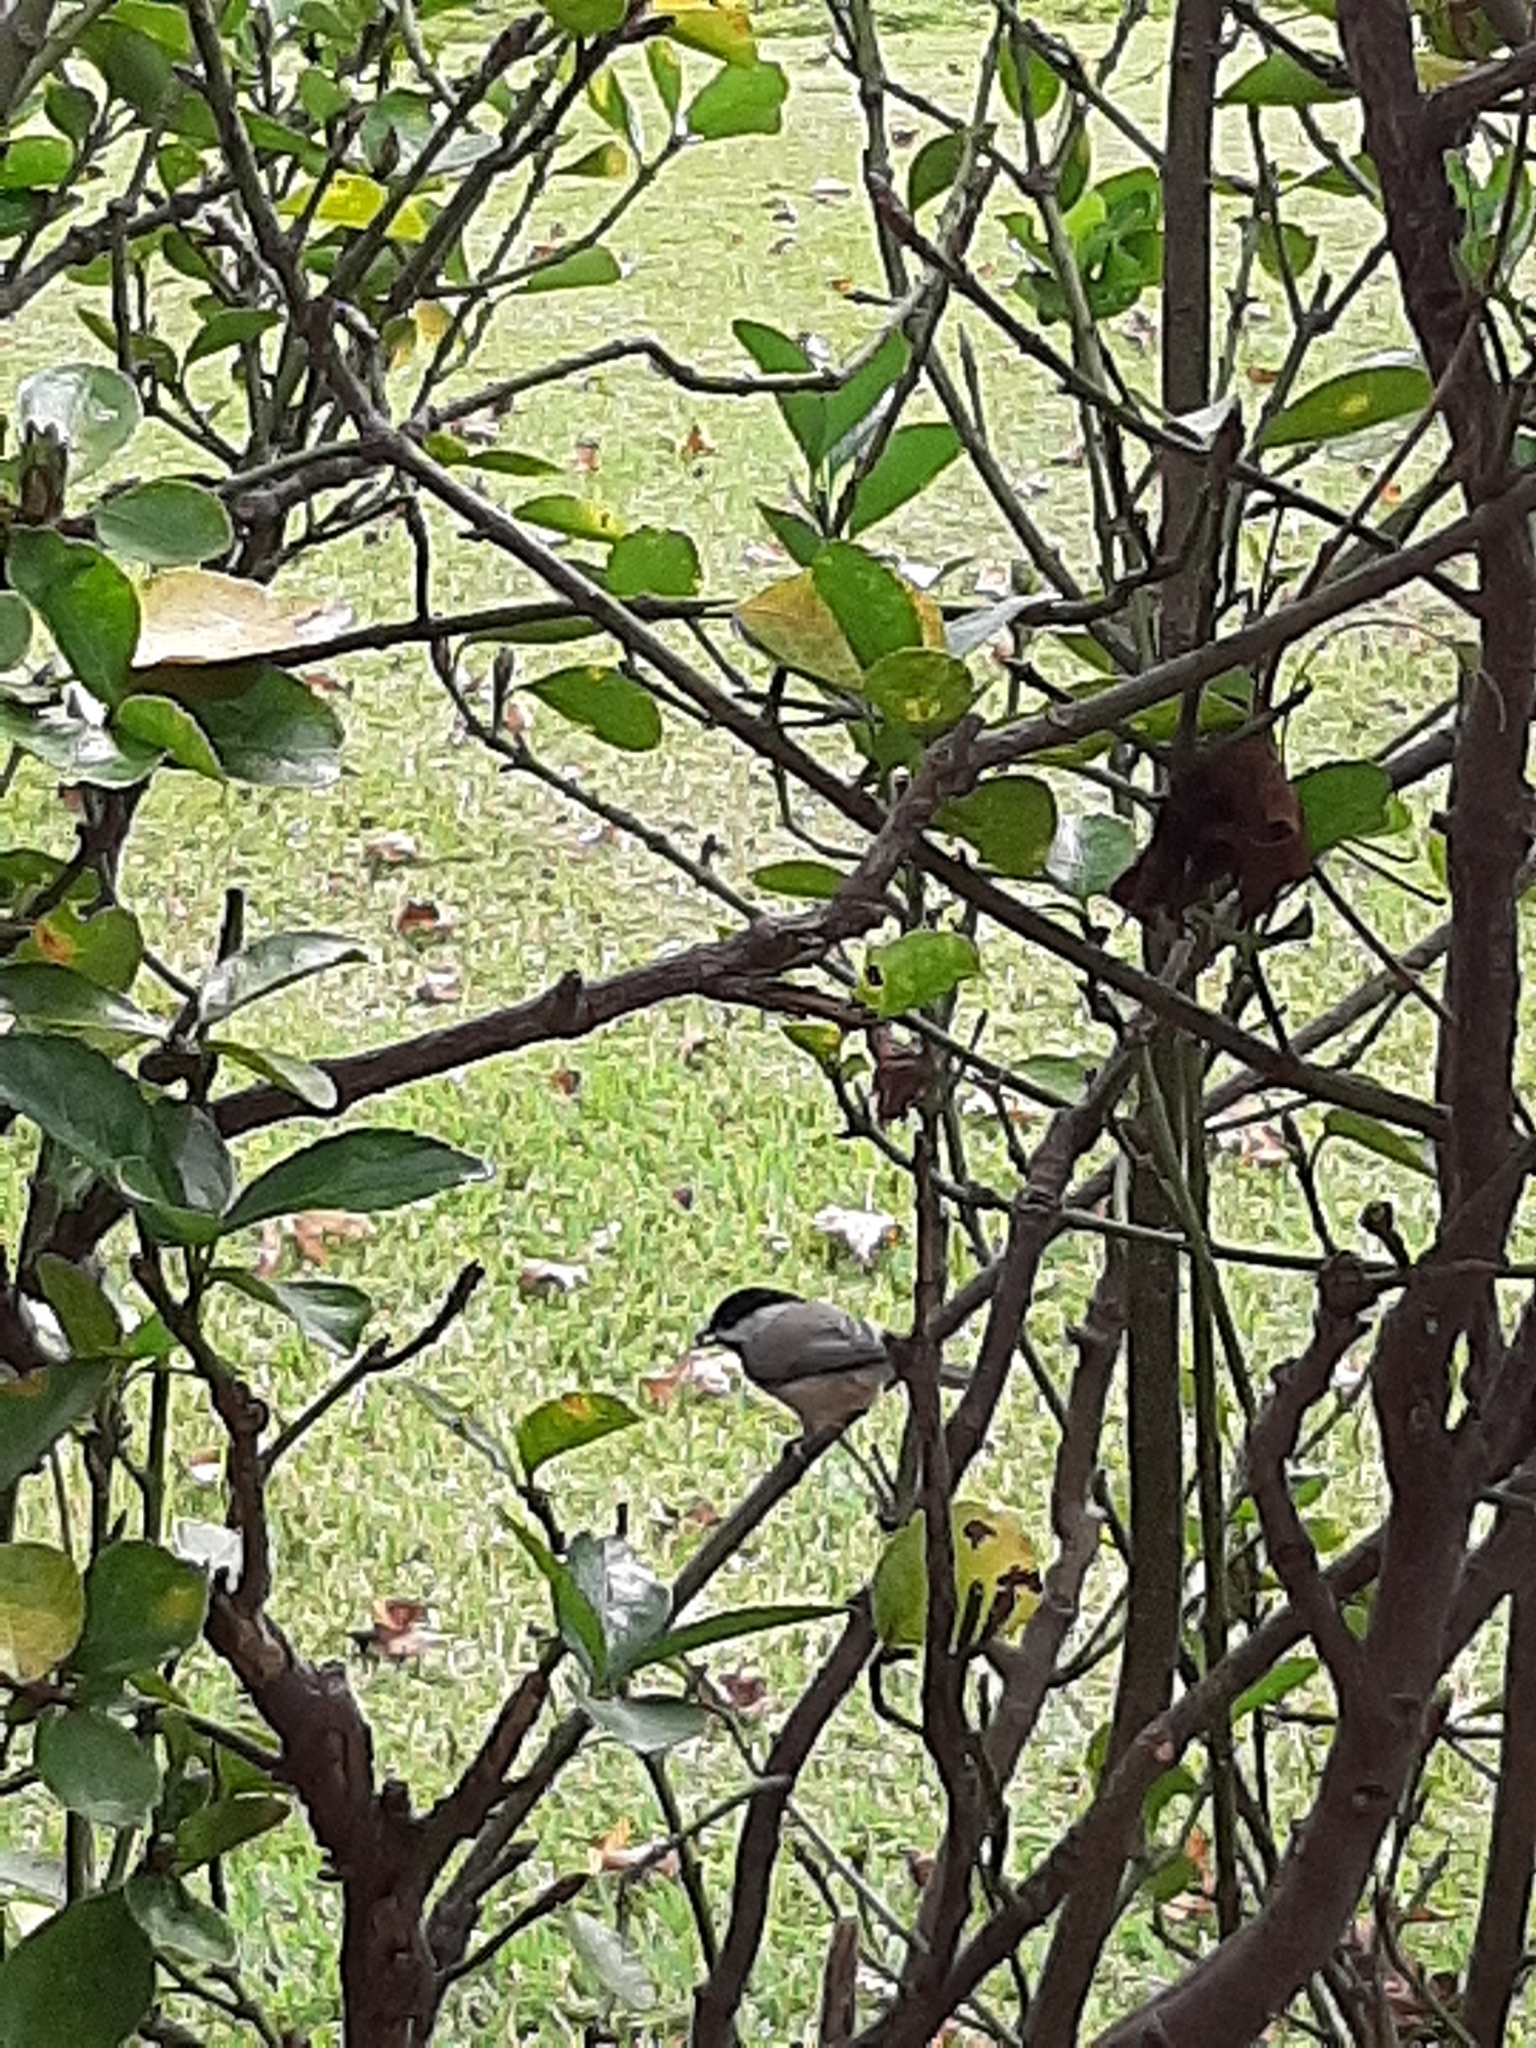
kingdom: Animalia
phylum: Chordata
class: Aves
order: Passeriformes
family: Paridae
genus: Poecile
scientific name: Poecile carolinensis
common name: Carolina chickadee
